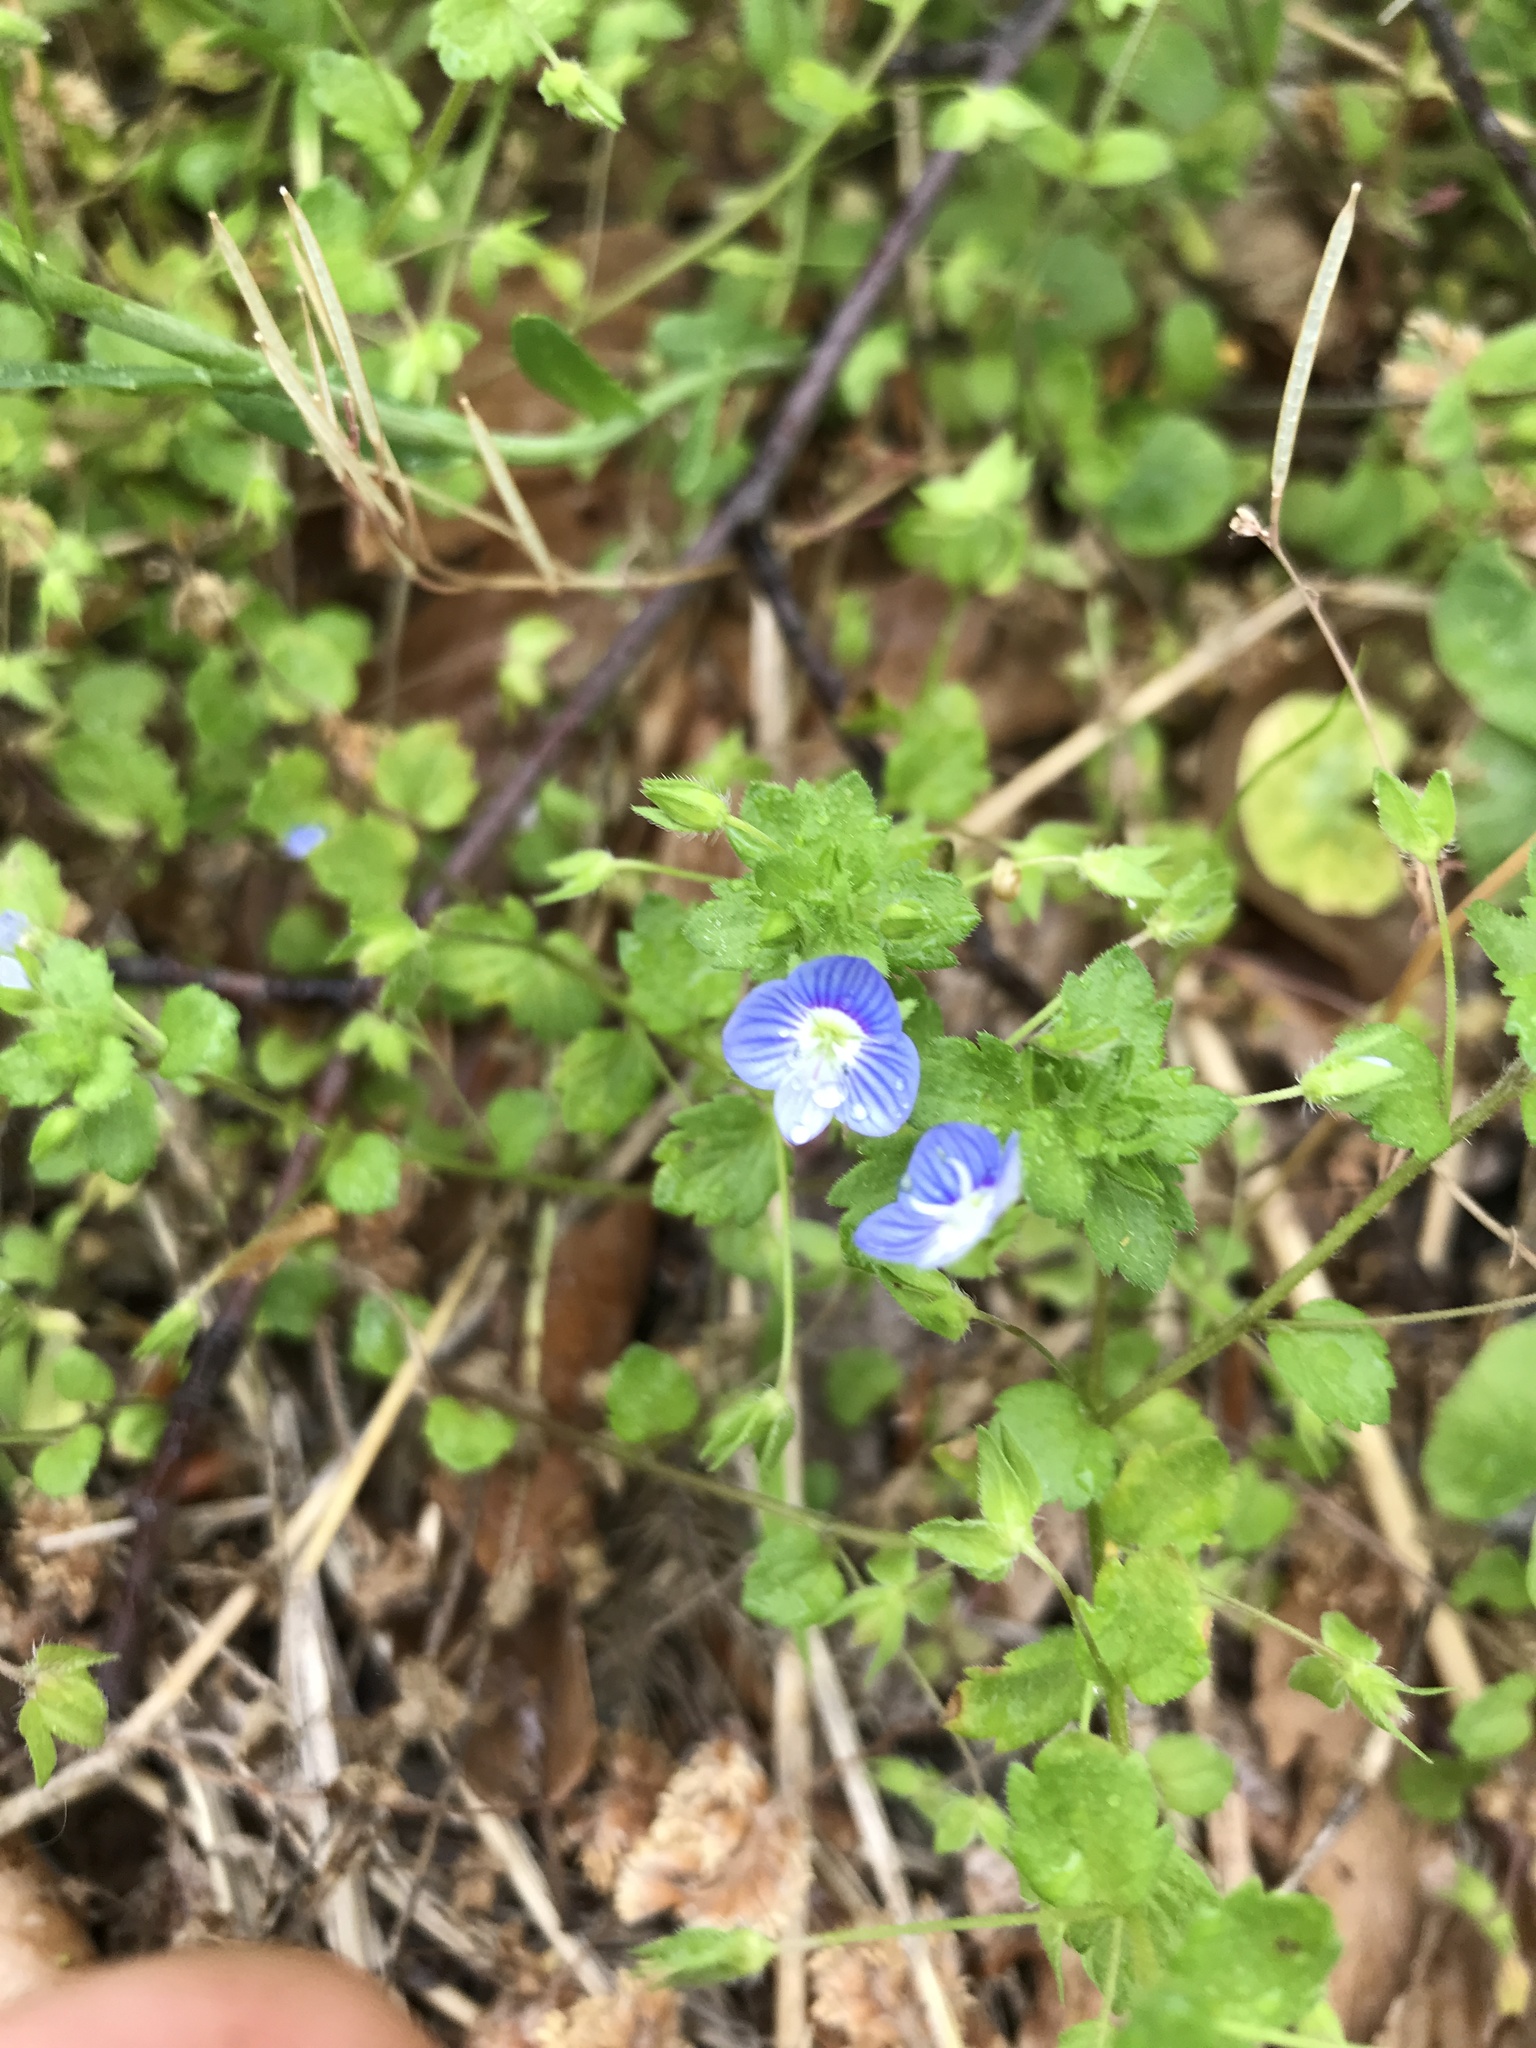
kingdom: Plantae
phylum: Tracheophyta
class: Magnoliopsida
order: Lamiales
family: Plantaginaceae
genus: Veronica
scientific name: Veronica persica
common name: Common field-speedwell
